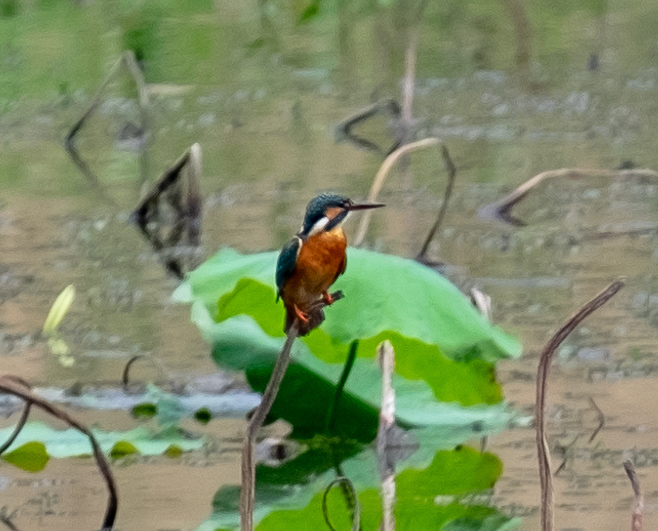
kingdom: Animalia
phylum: Chordata
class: Aves
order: Coraciiformes
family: Alcedinidae
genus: Alcedo
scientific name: Alcedo atthis
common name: Common kingfisher
